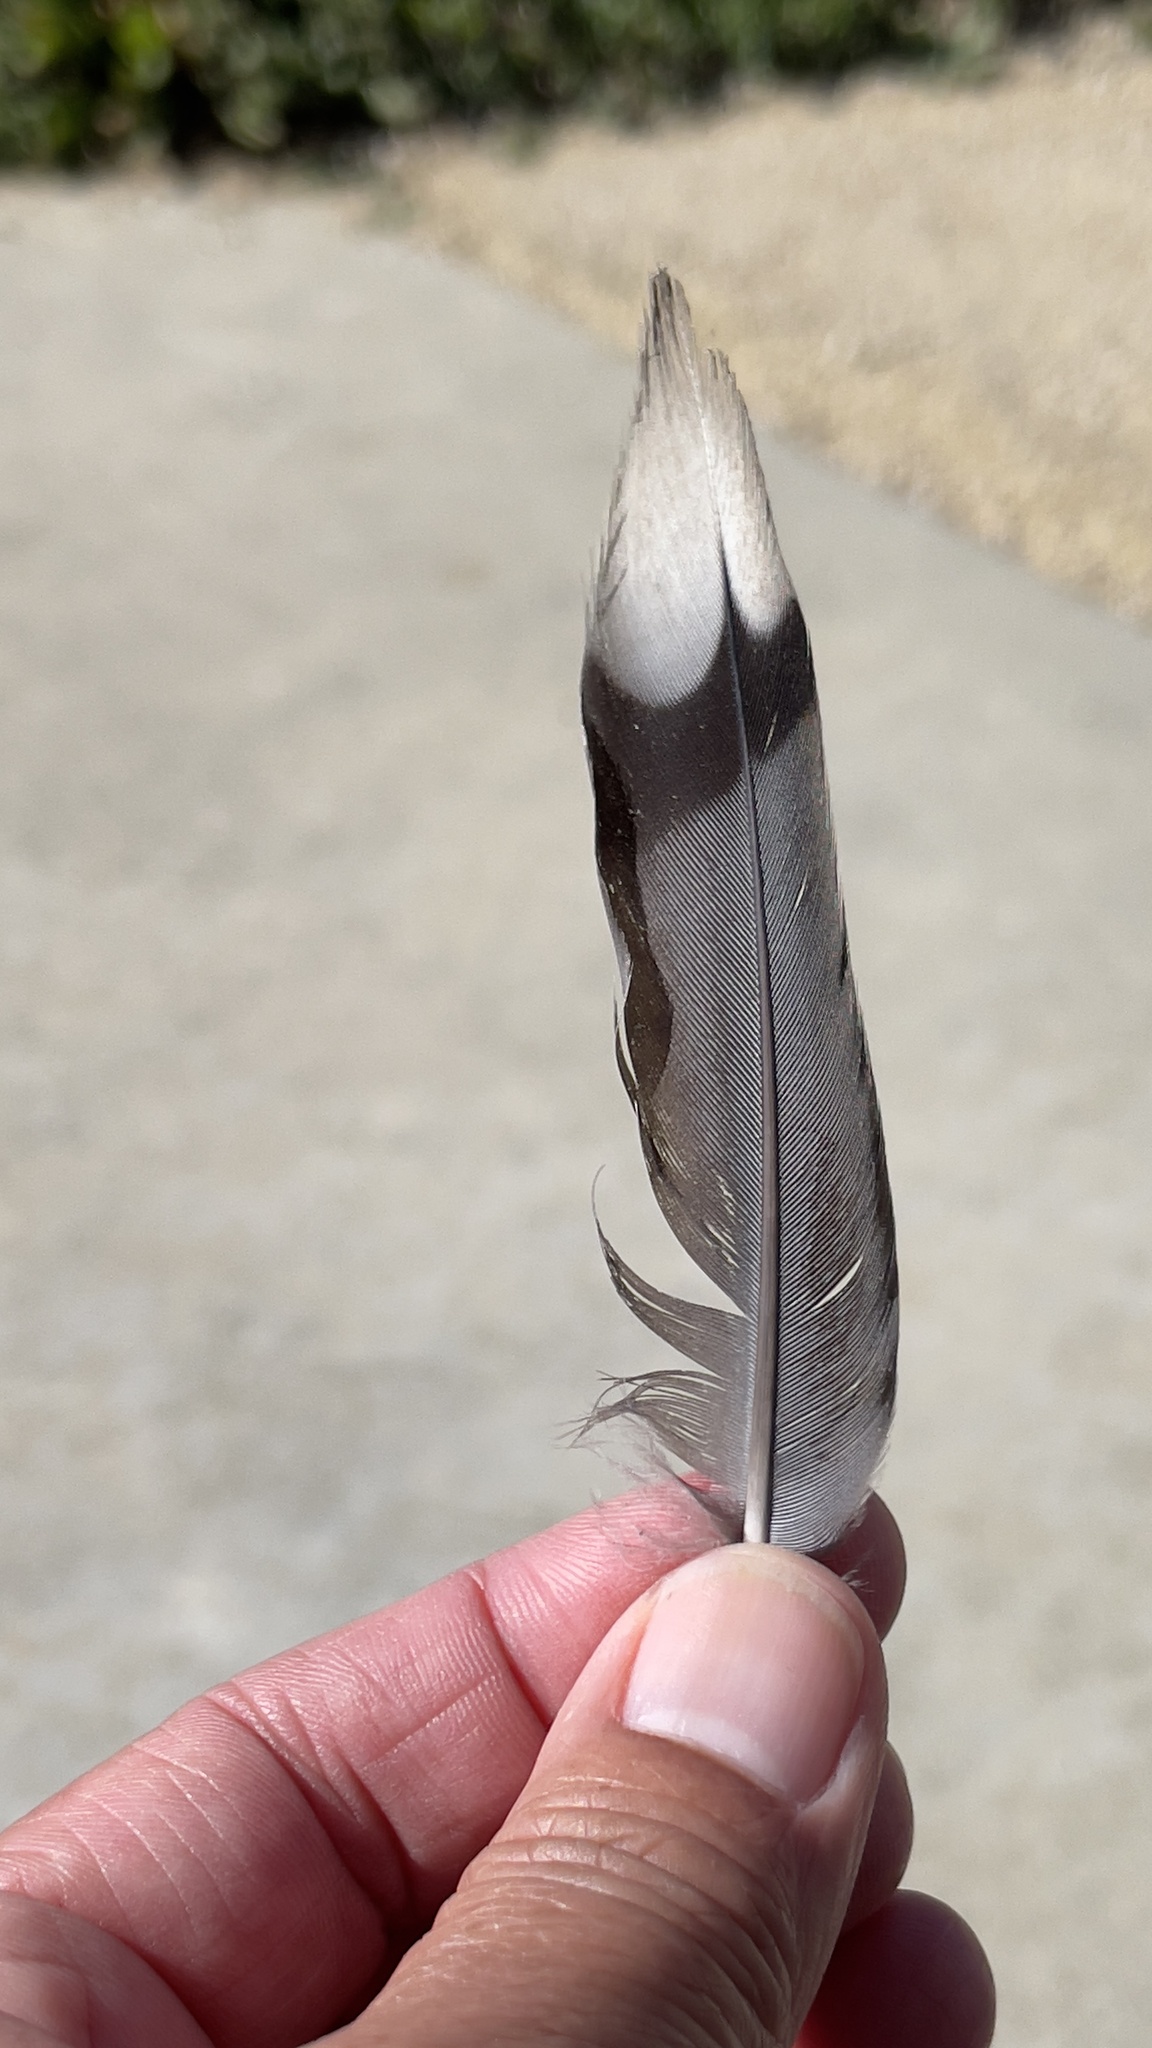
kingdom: Animalia
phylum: Chordata
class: Aves
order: Columbiformes
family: Columbidae
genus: Zenaida
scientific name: Zenaida macroura
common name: Mourning dove
